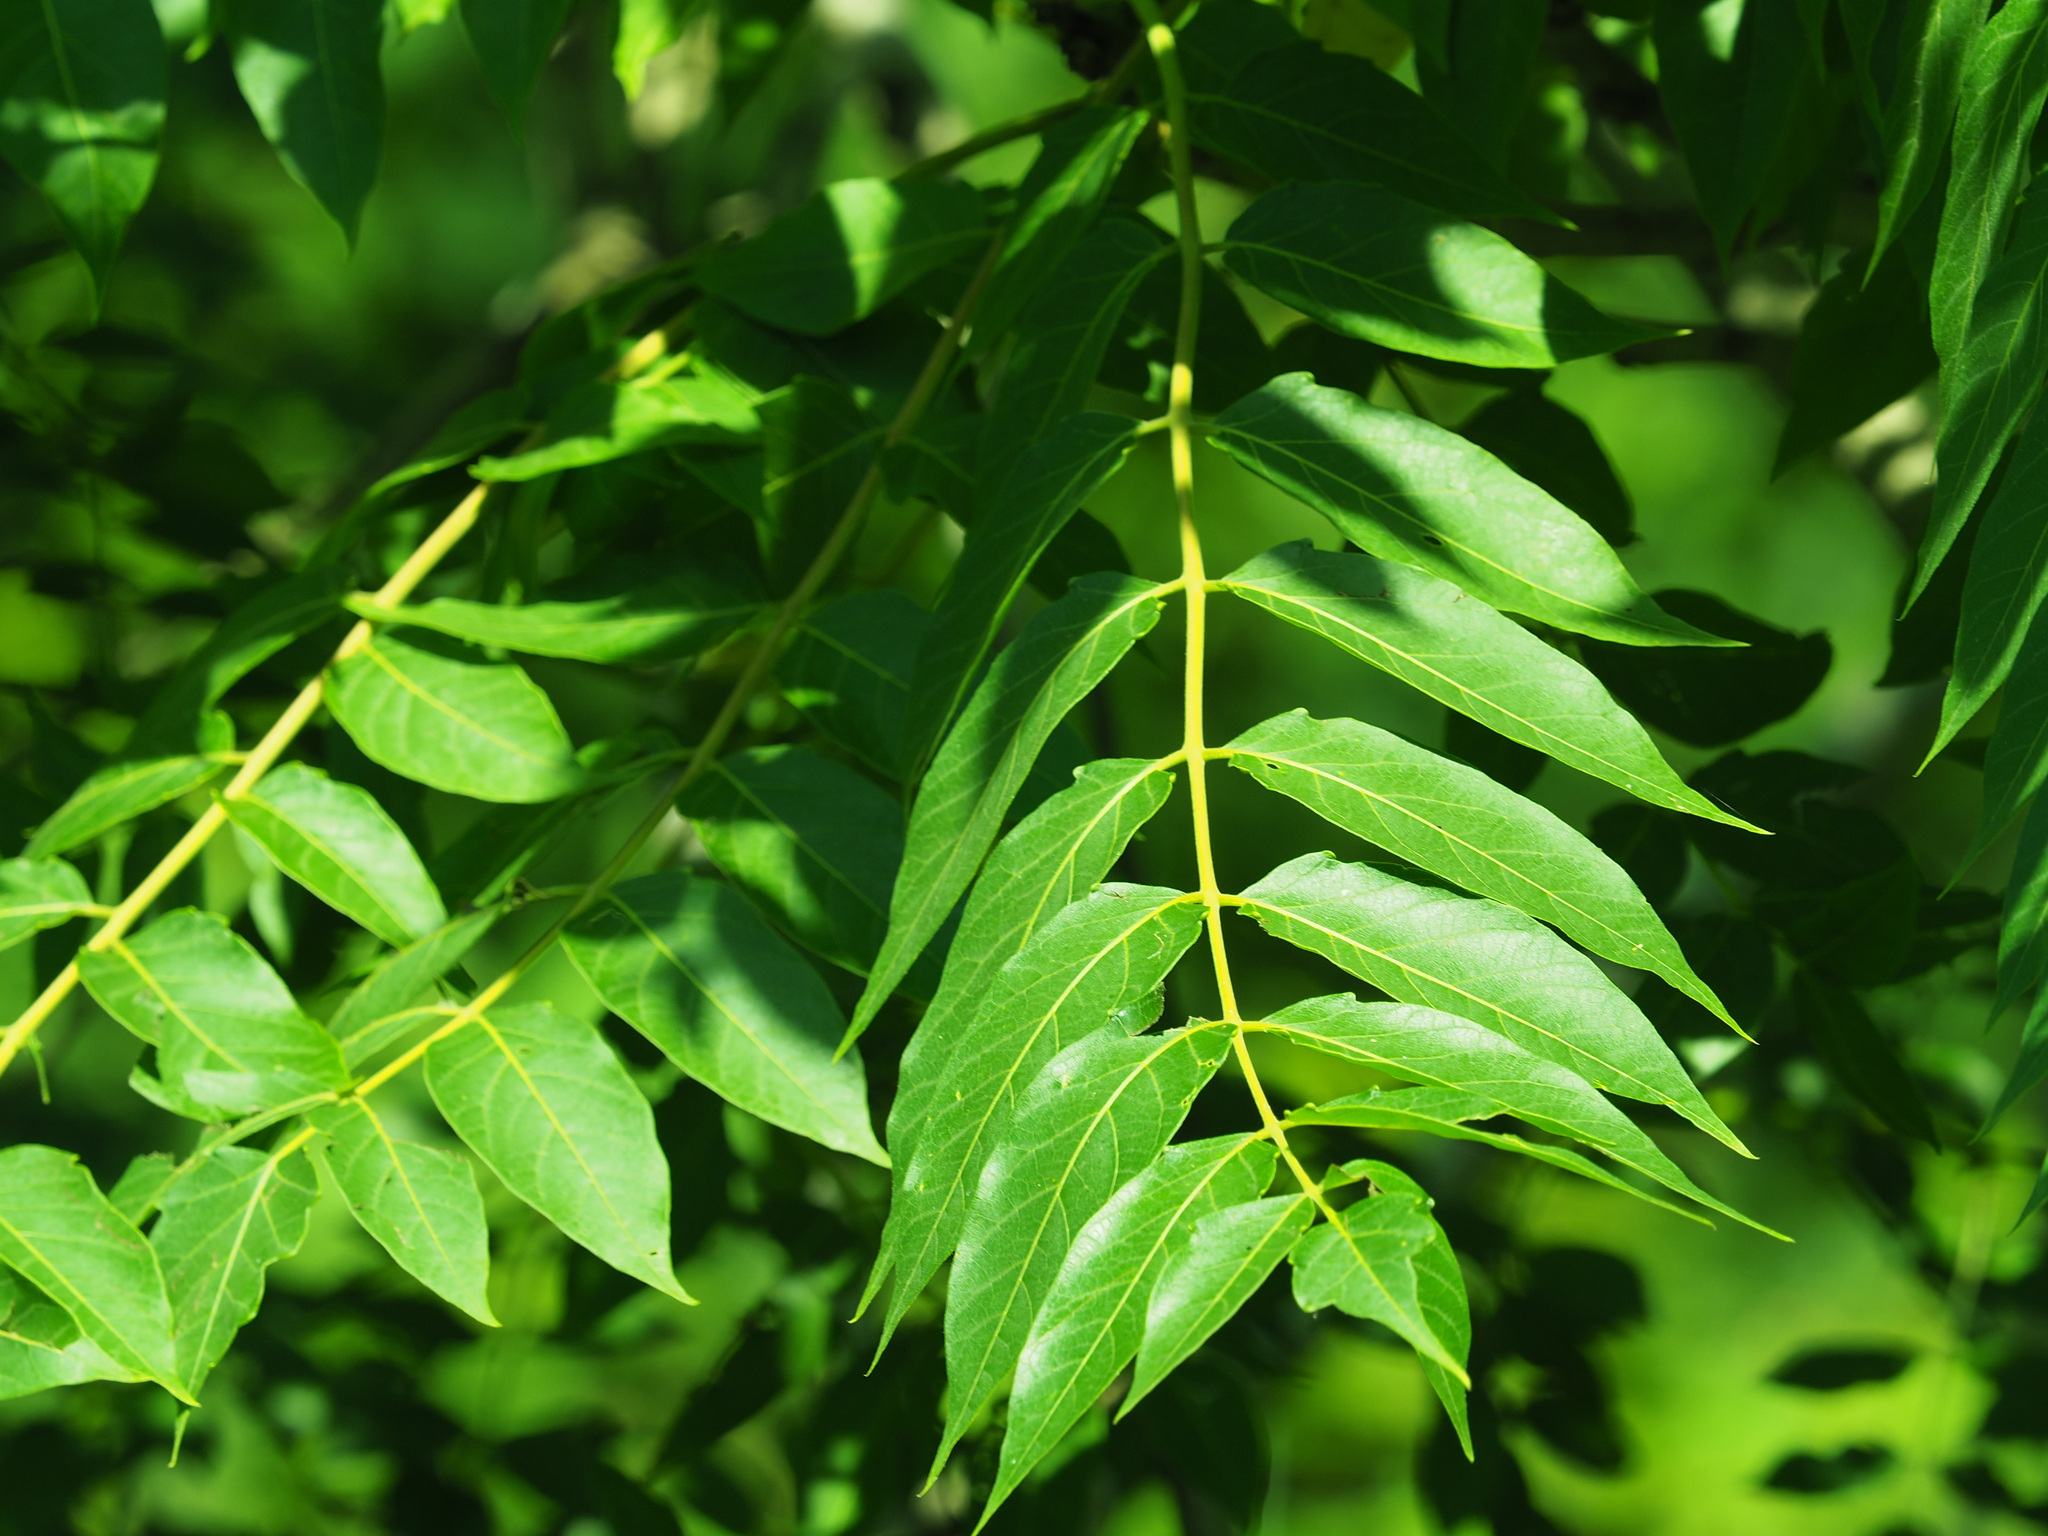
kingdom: Plantae
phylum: Tracheophyta
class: Magnoliopsida
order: Sapindales
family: Simaroubaceae
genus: Ailanthus
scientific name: Ailanthus altissima
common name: Tree-of-heaven
